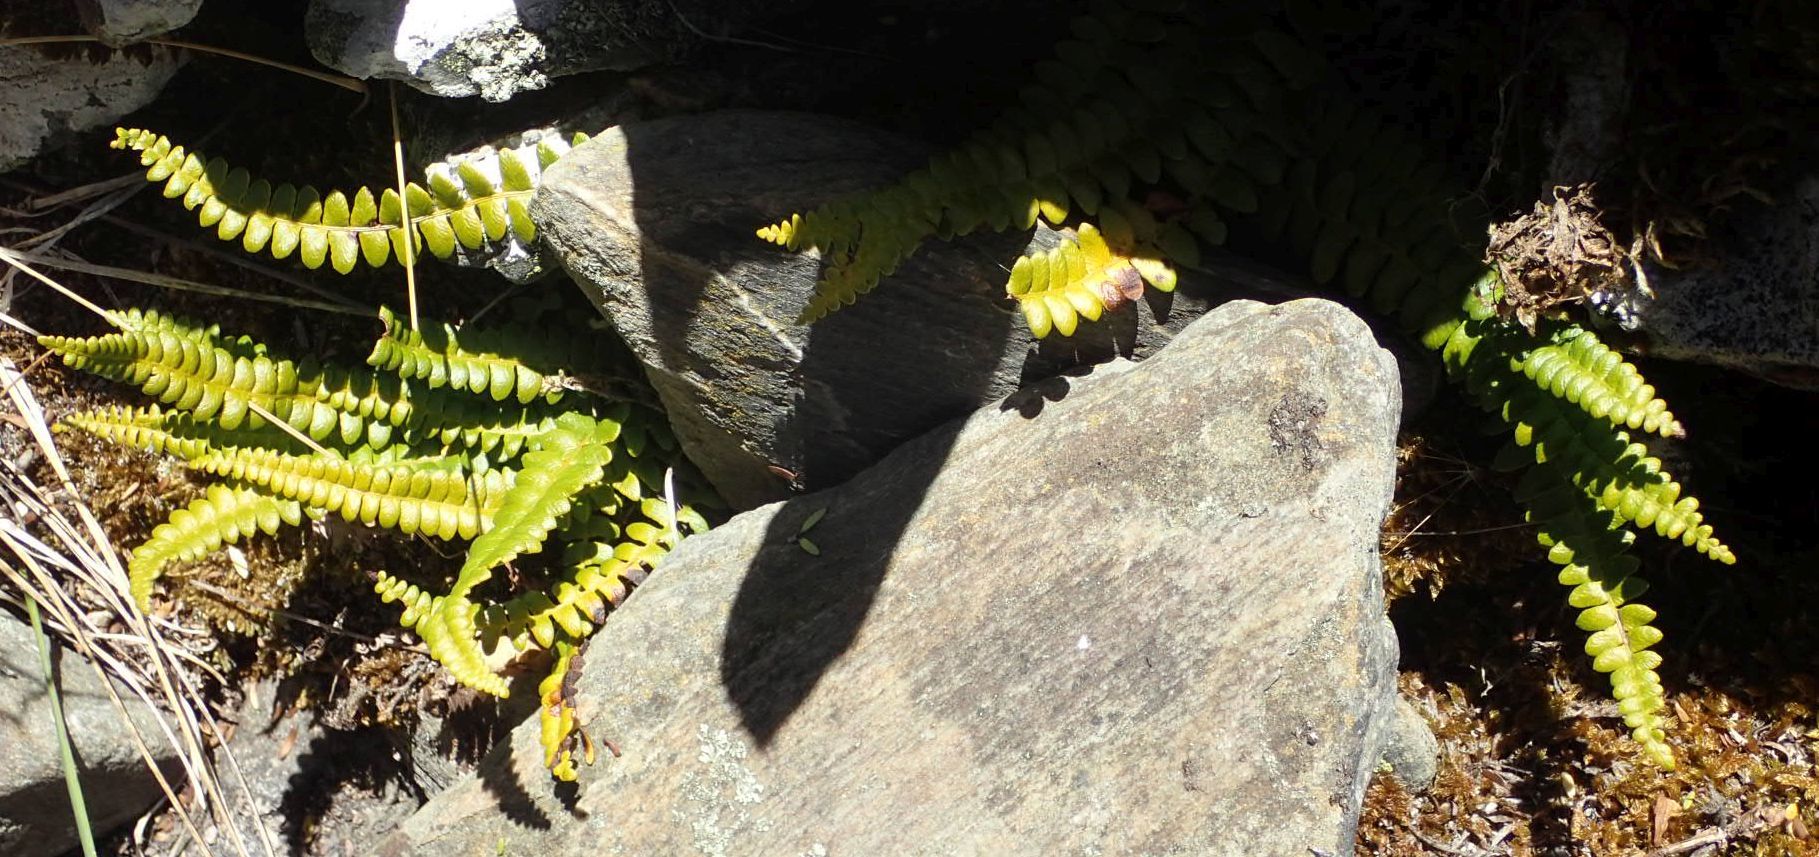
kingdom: Plantae
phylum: Tracheophyta
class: Polypodiopsida
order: Polypodiales
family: Blechnaceae
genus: Austroblechnum
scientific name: Austroblechnum penna-marina
